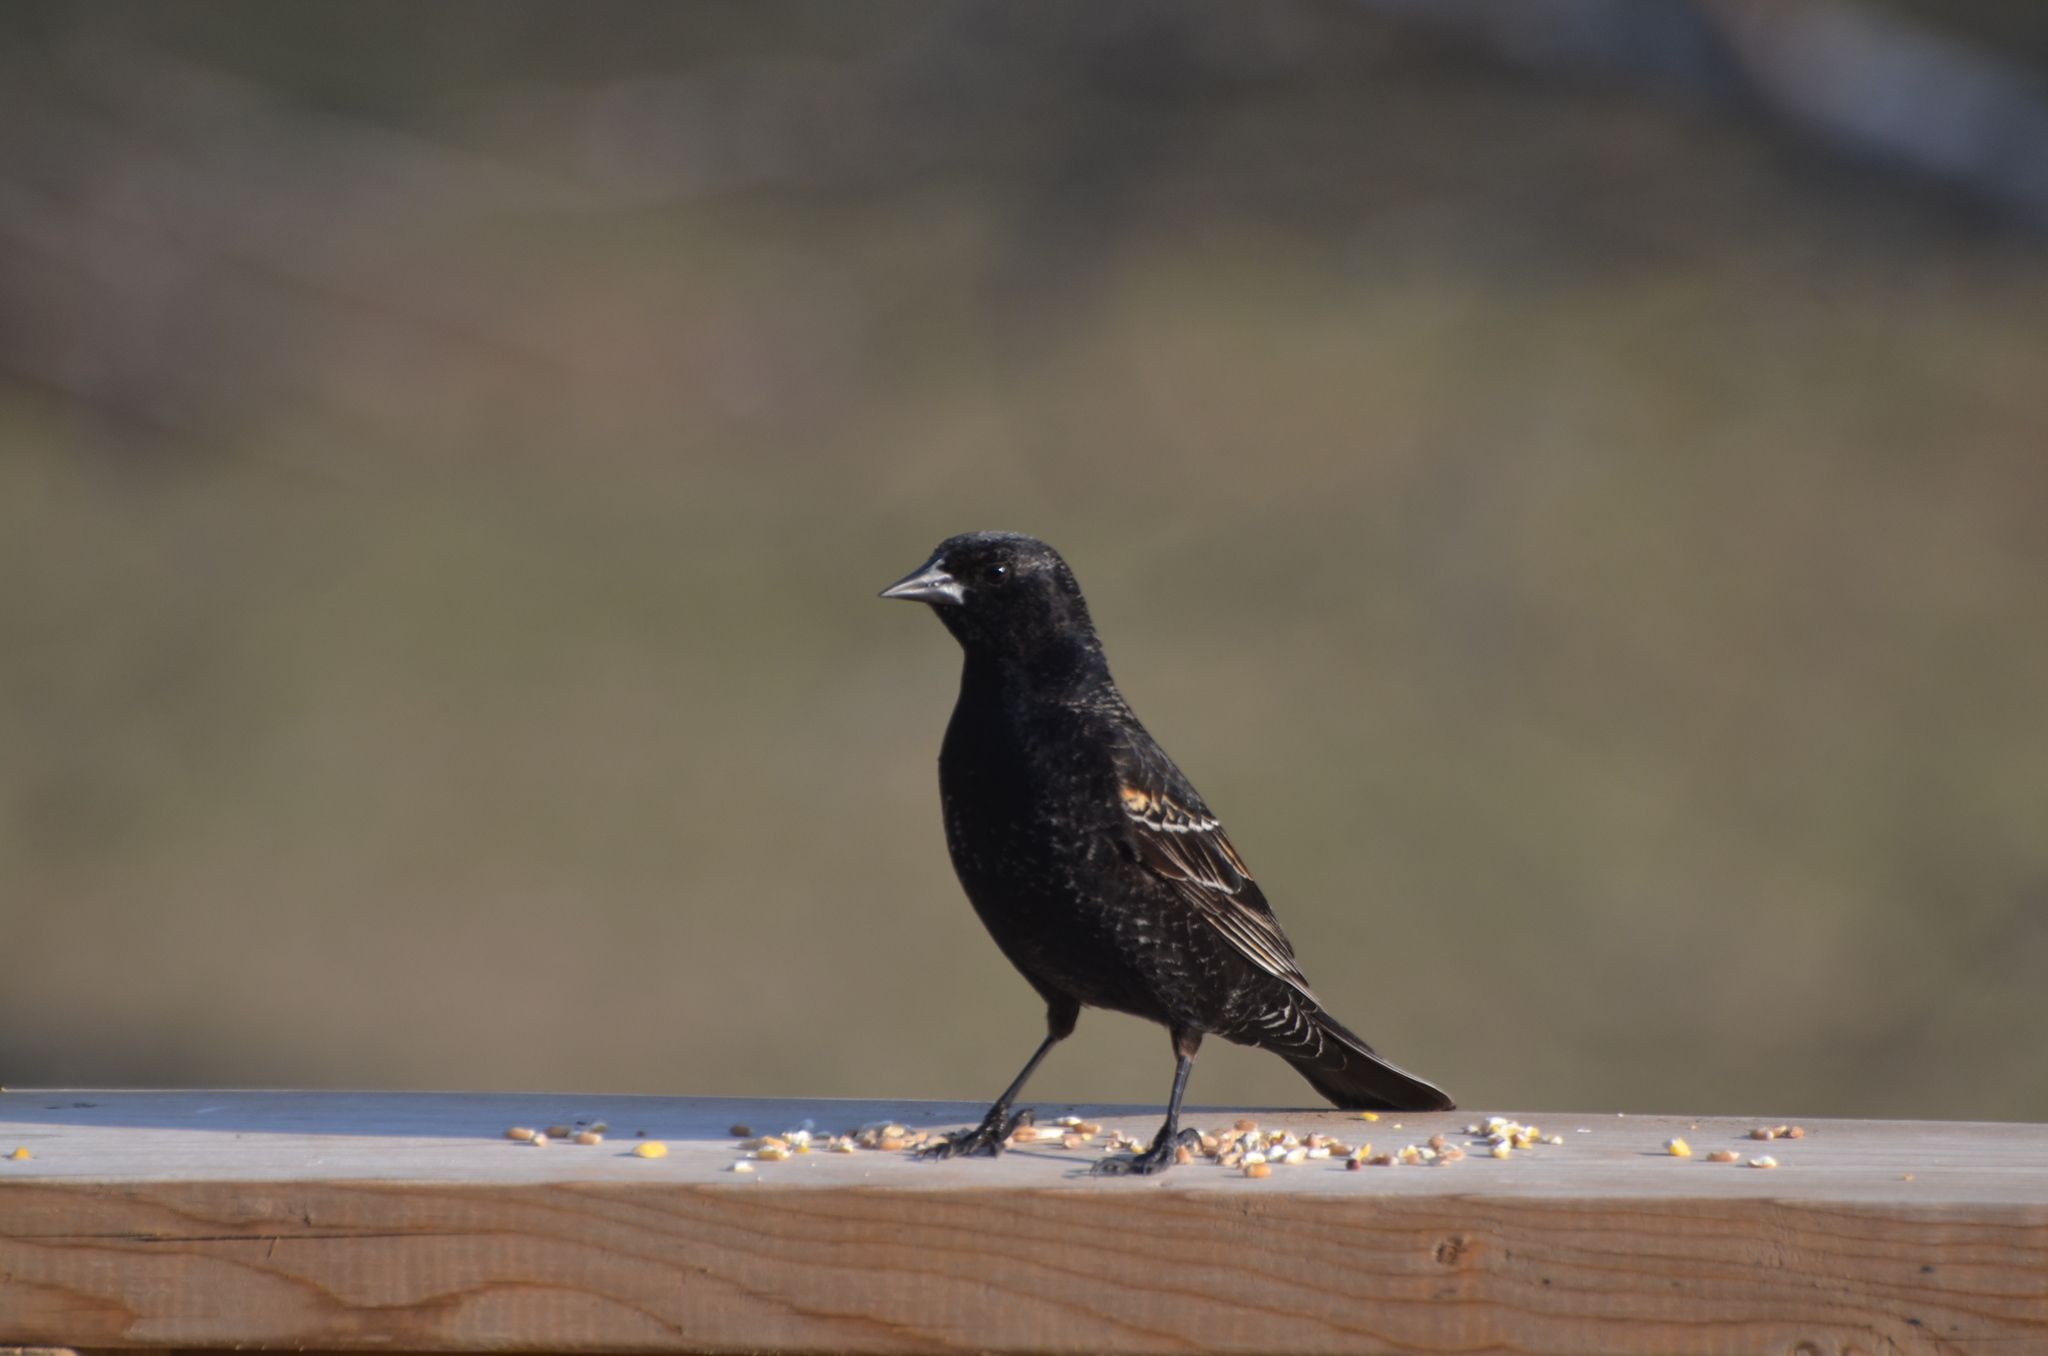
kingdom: Animalia
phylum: Chordata
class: Aves
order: Passeriformes
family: Icteridae
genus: Agelaius
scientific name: Agelaius phoeniceus
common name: Red-winged blackbird
